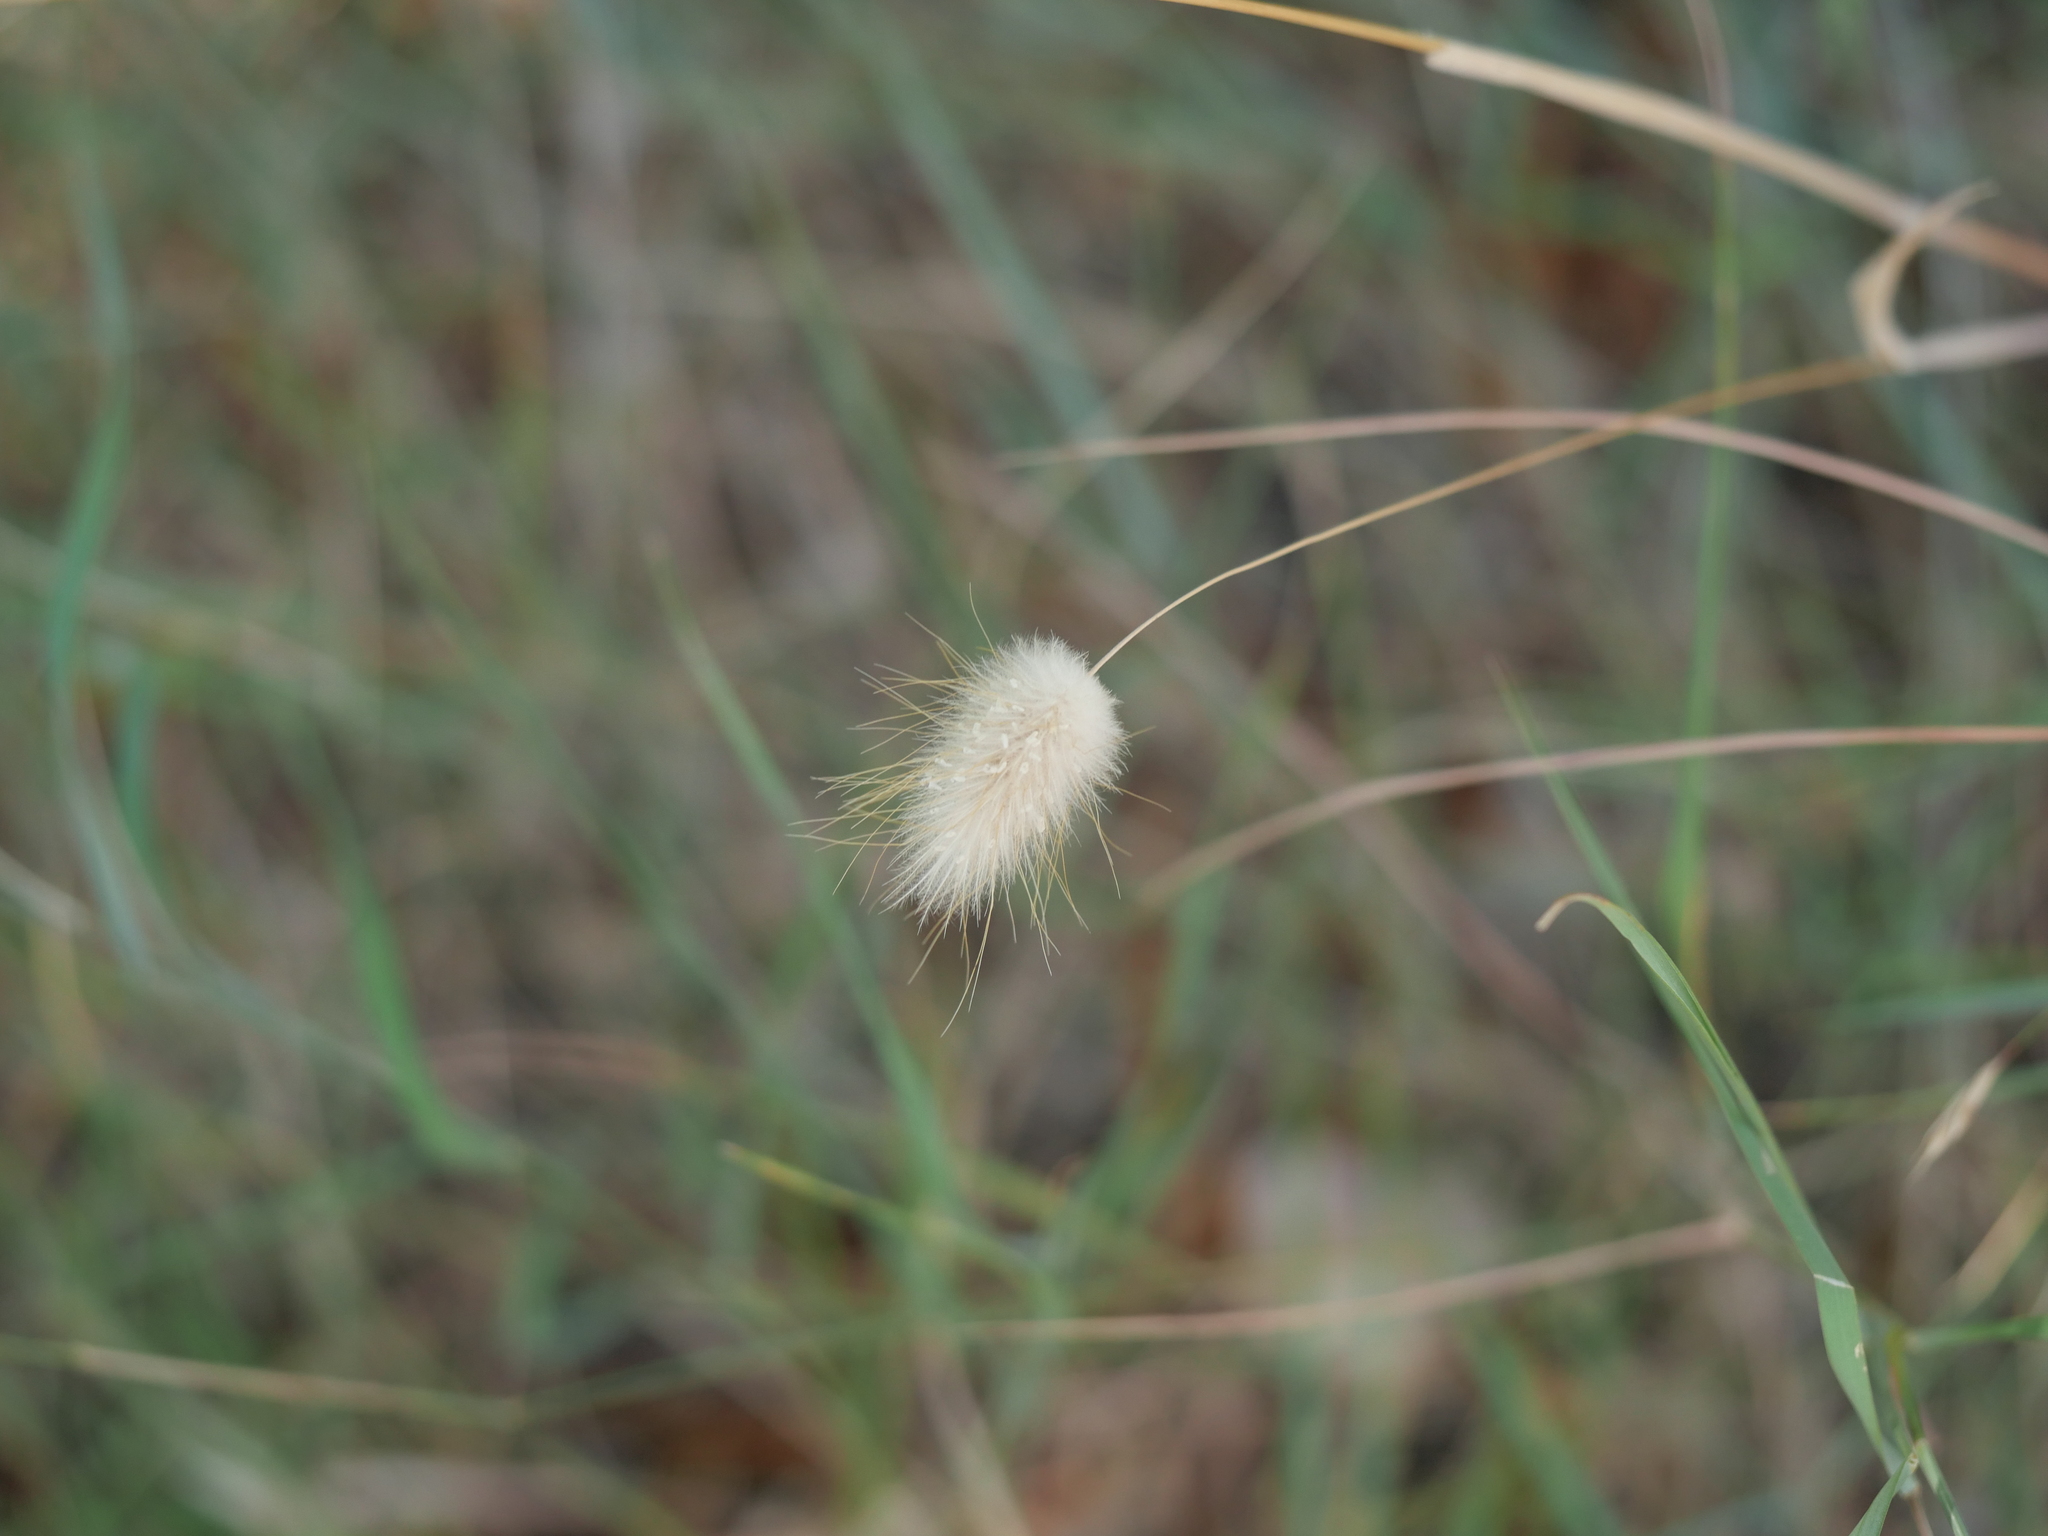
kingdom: Plantae
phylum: Tracheophyta
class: Liliopsida
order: Poales
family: Poaceae
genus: Lagurus
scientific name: Lagurus ovatus
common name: Hare's-tail
